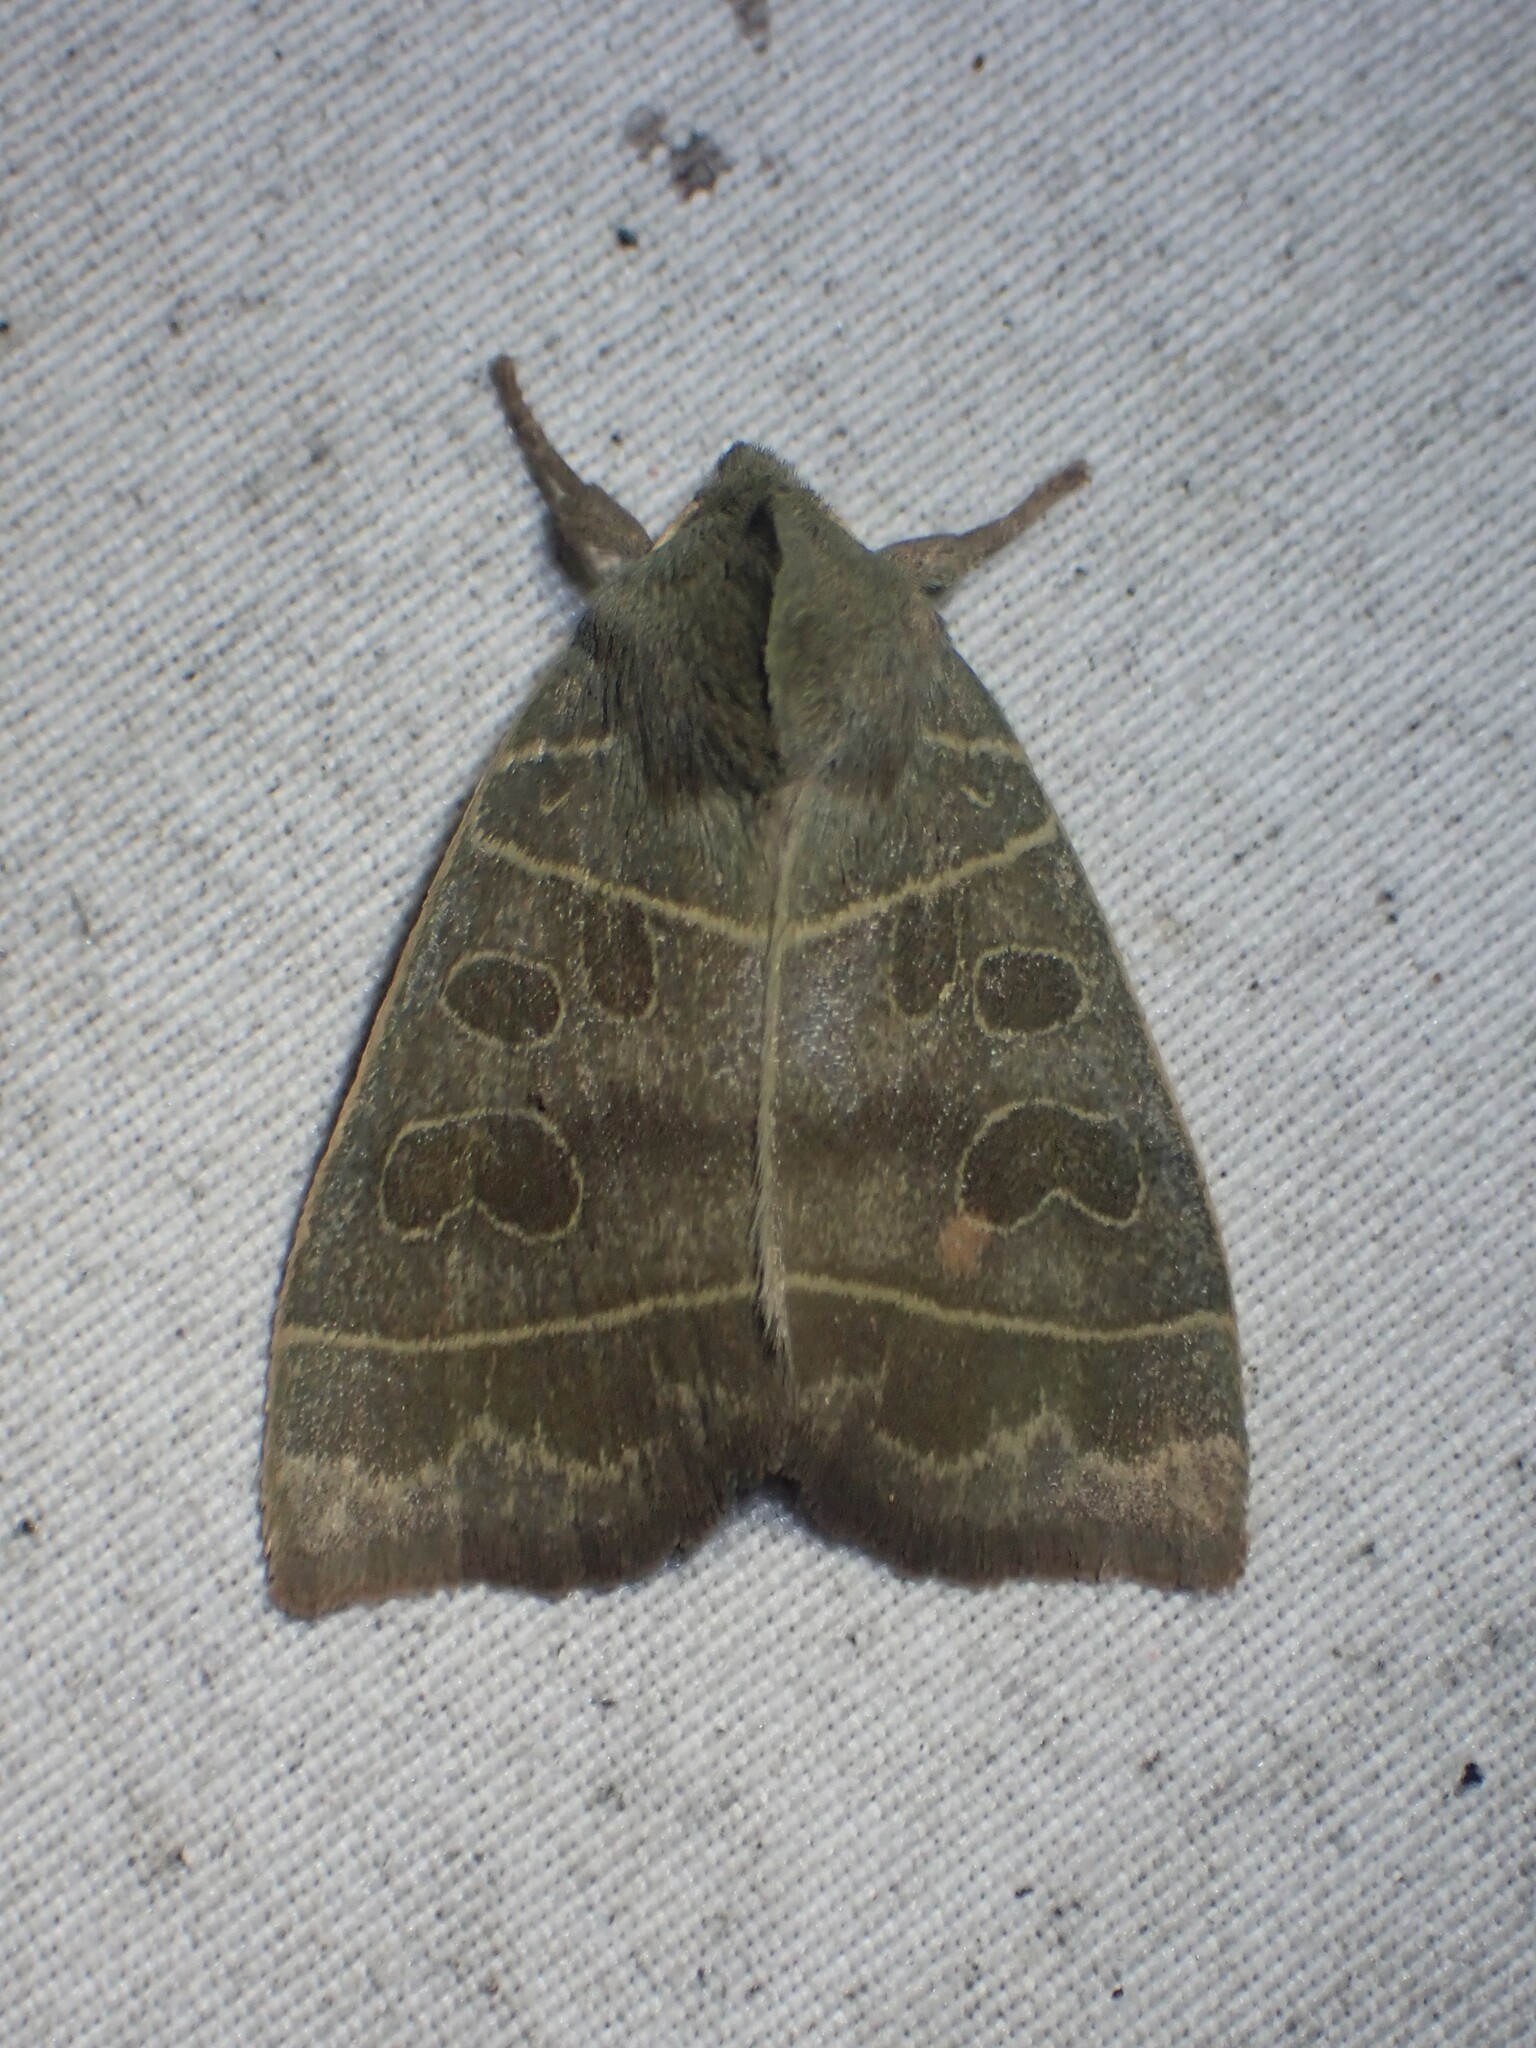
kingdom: Animalia
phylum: Arthropoda
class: Insecta
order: Lepidoptera
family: Noctuidae
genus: Ipimorpha
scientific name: Ipimorpha pleonectusa
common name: Even-lined sallow
